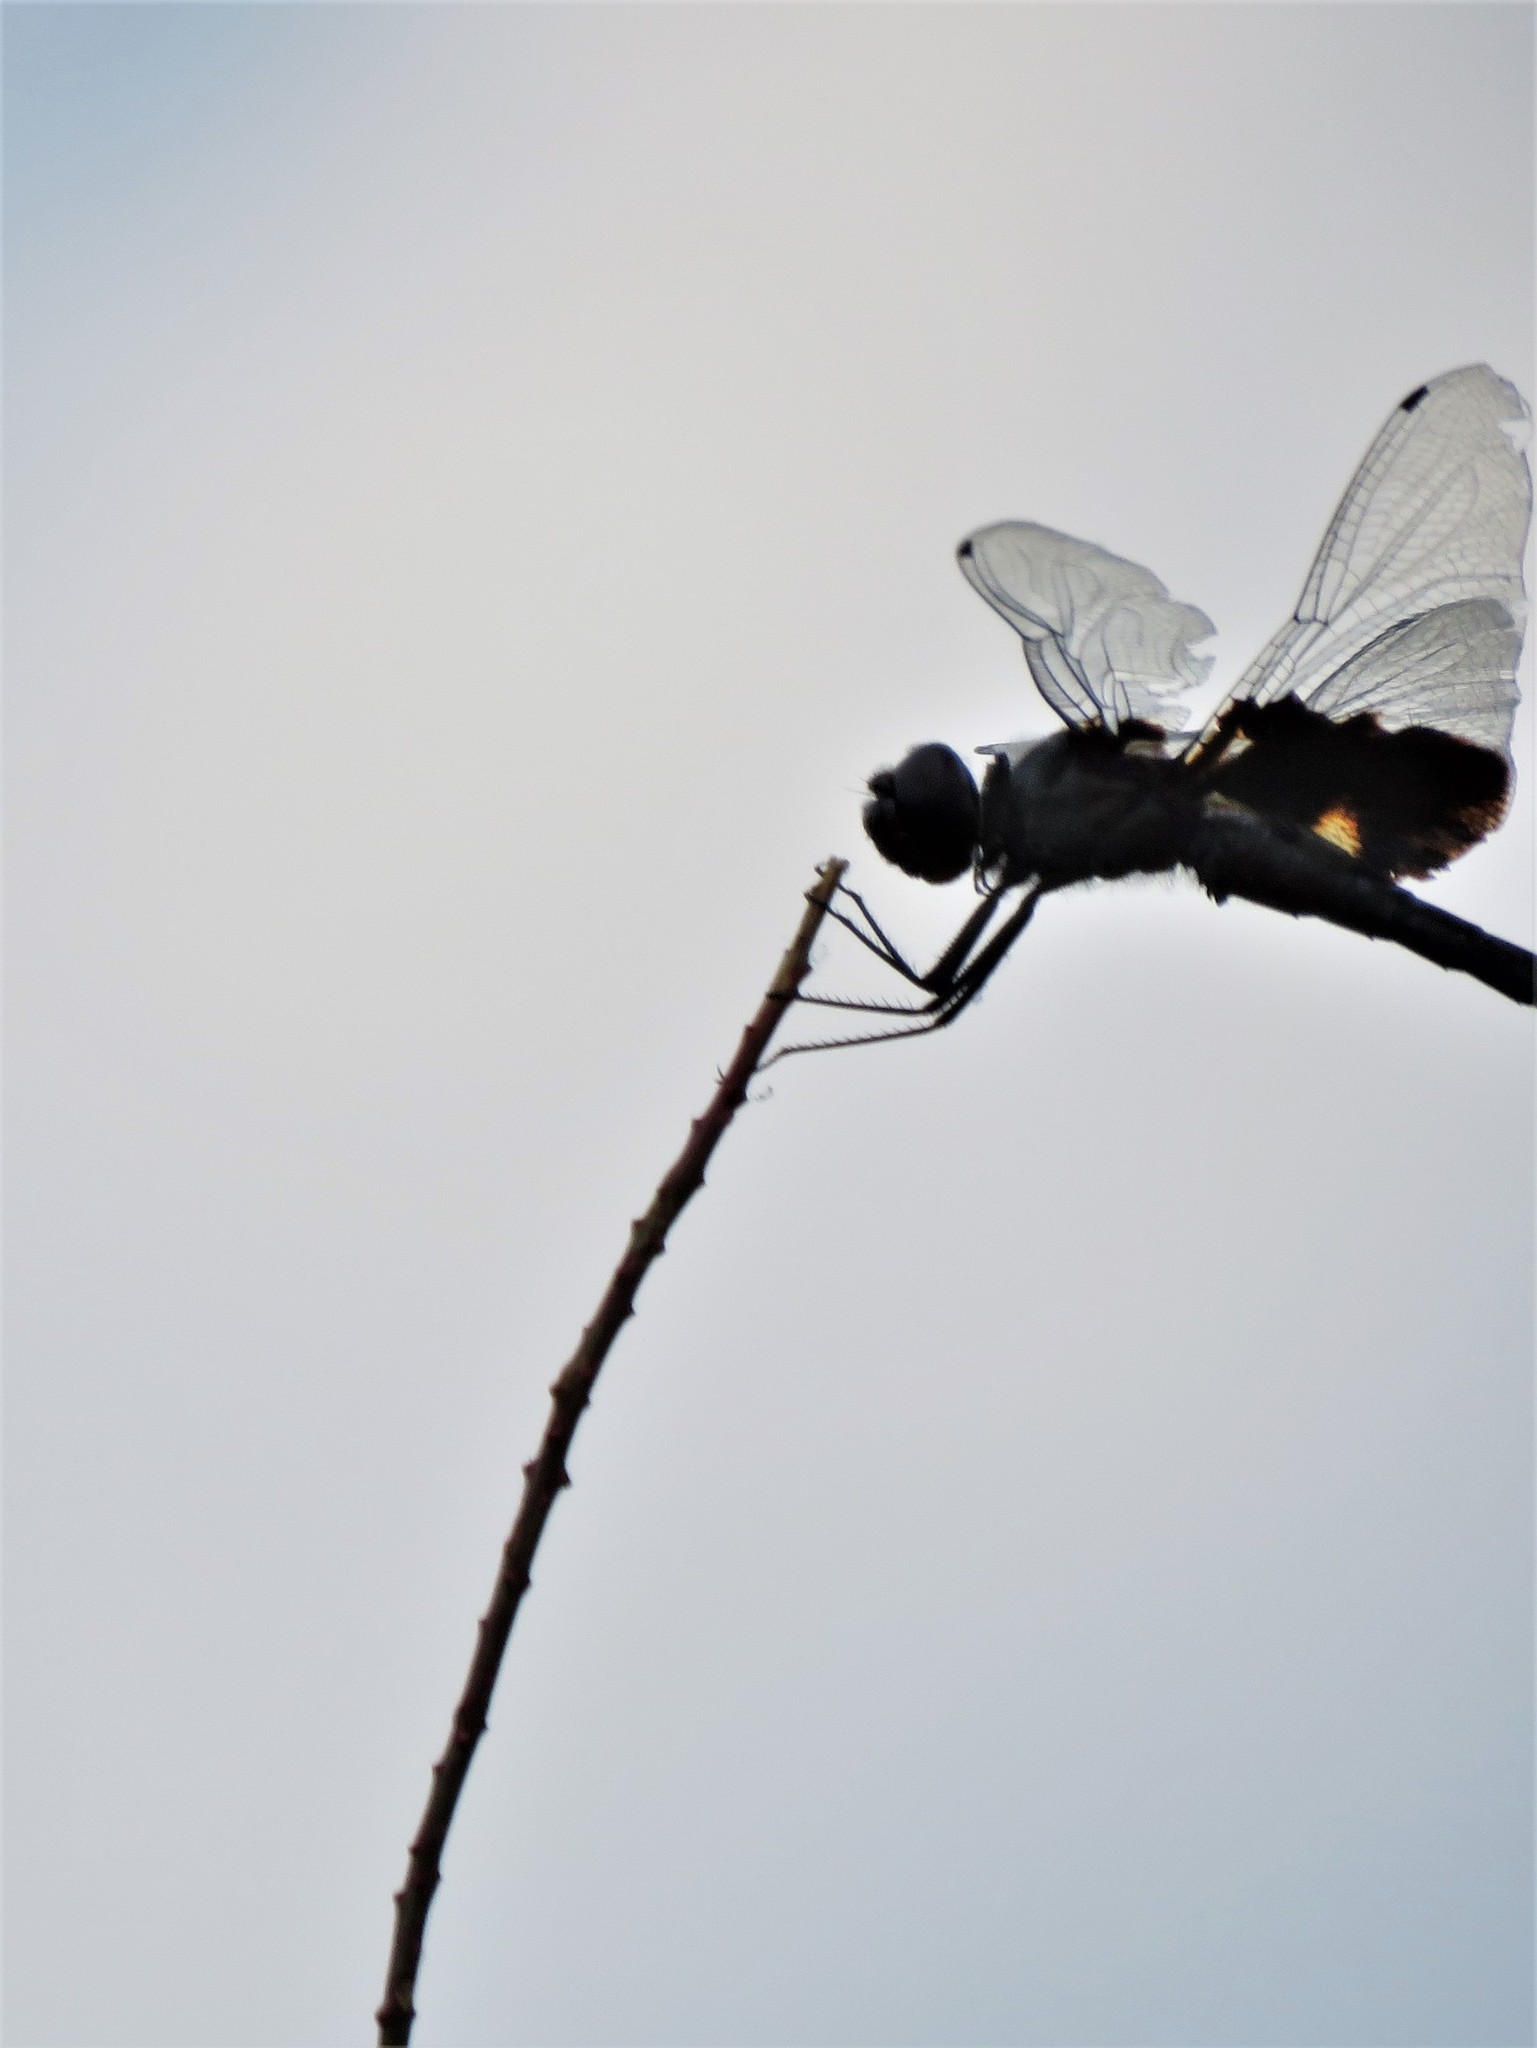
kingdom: Animalia
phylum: Arthropoda
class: Insecta
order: Odonata
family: Libellulidae
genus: Tramea
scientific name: Tramea lacerata
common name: Black saddlebags
